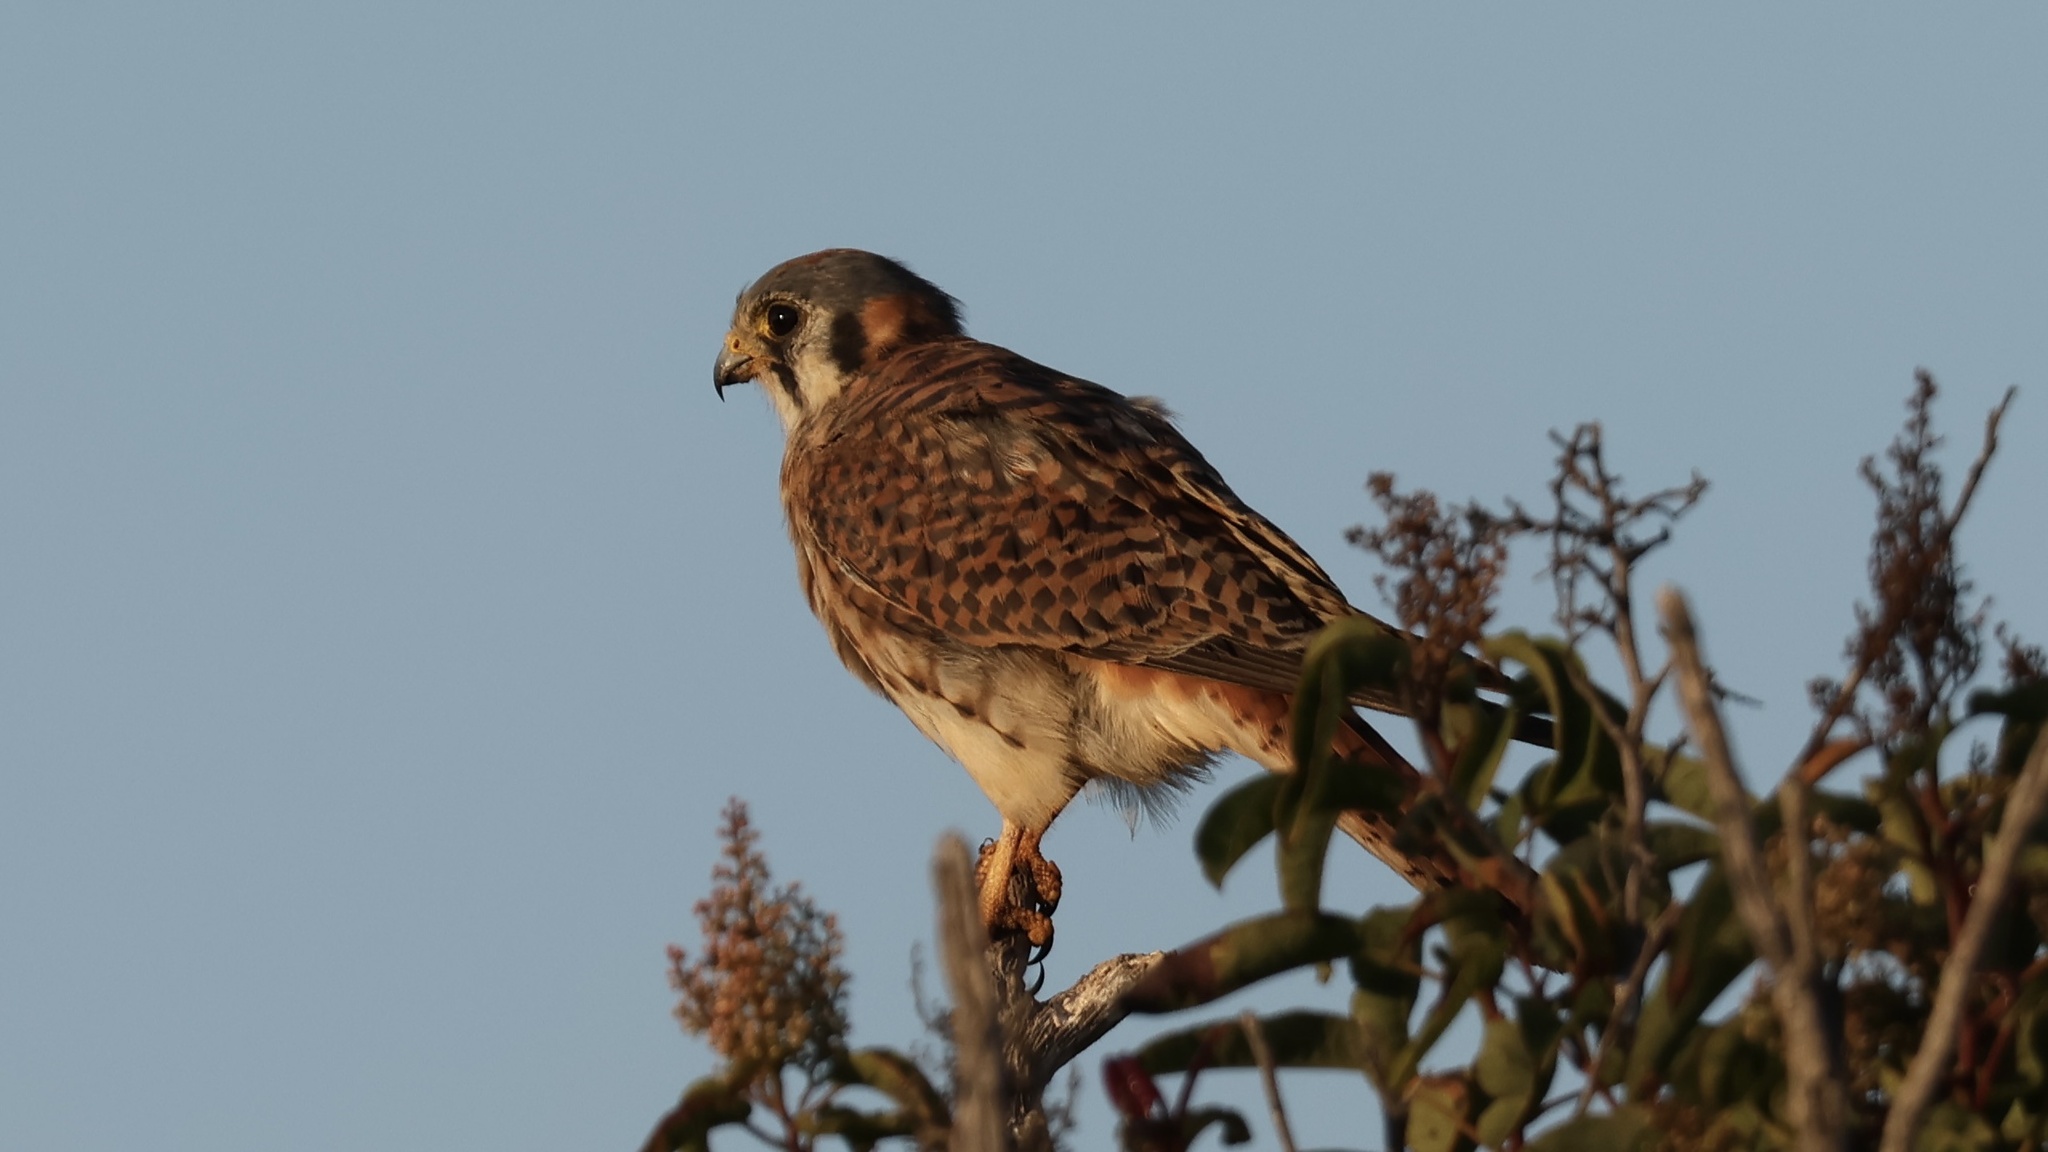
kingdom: Animalia
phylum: Chordata
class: Aves
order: Falconiformes
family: Falconidae
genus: Falco
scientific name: Falco sparverius
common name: American kestrel
